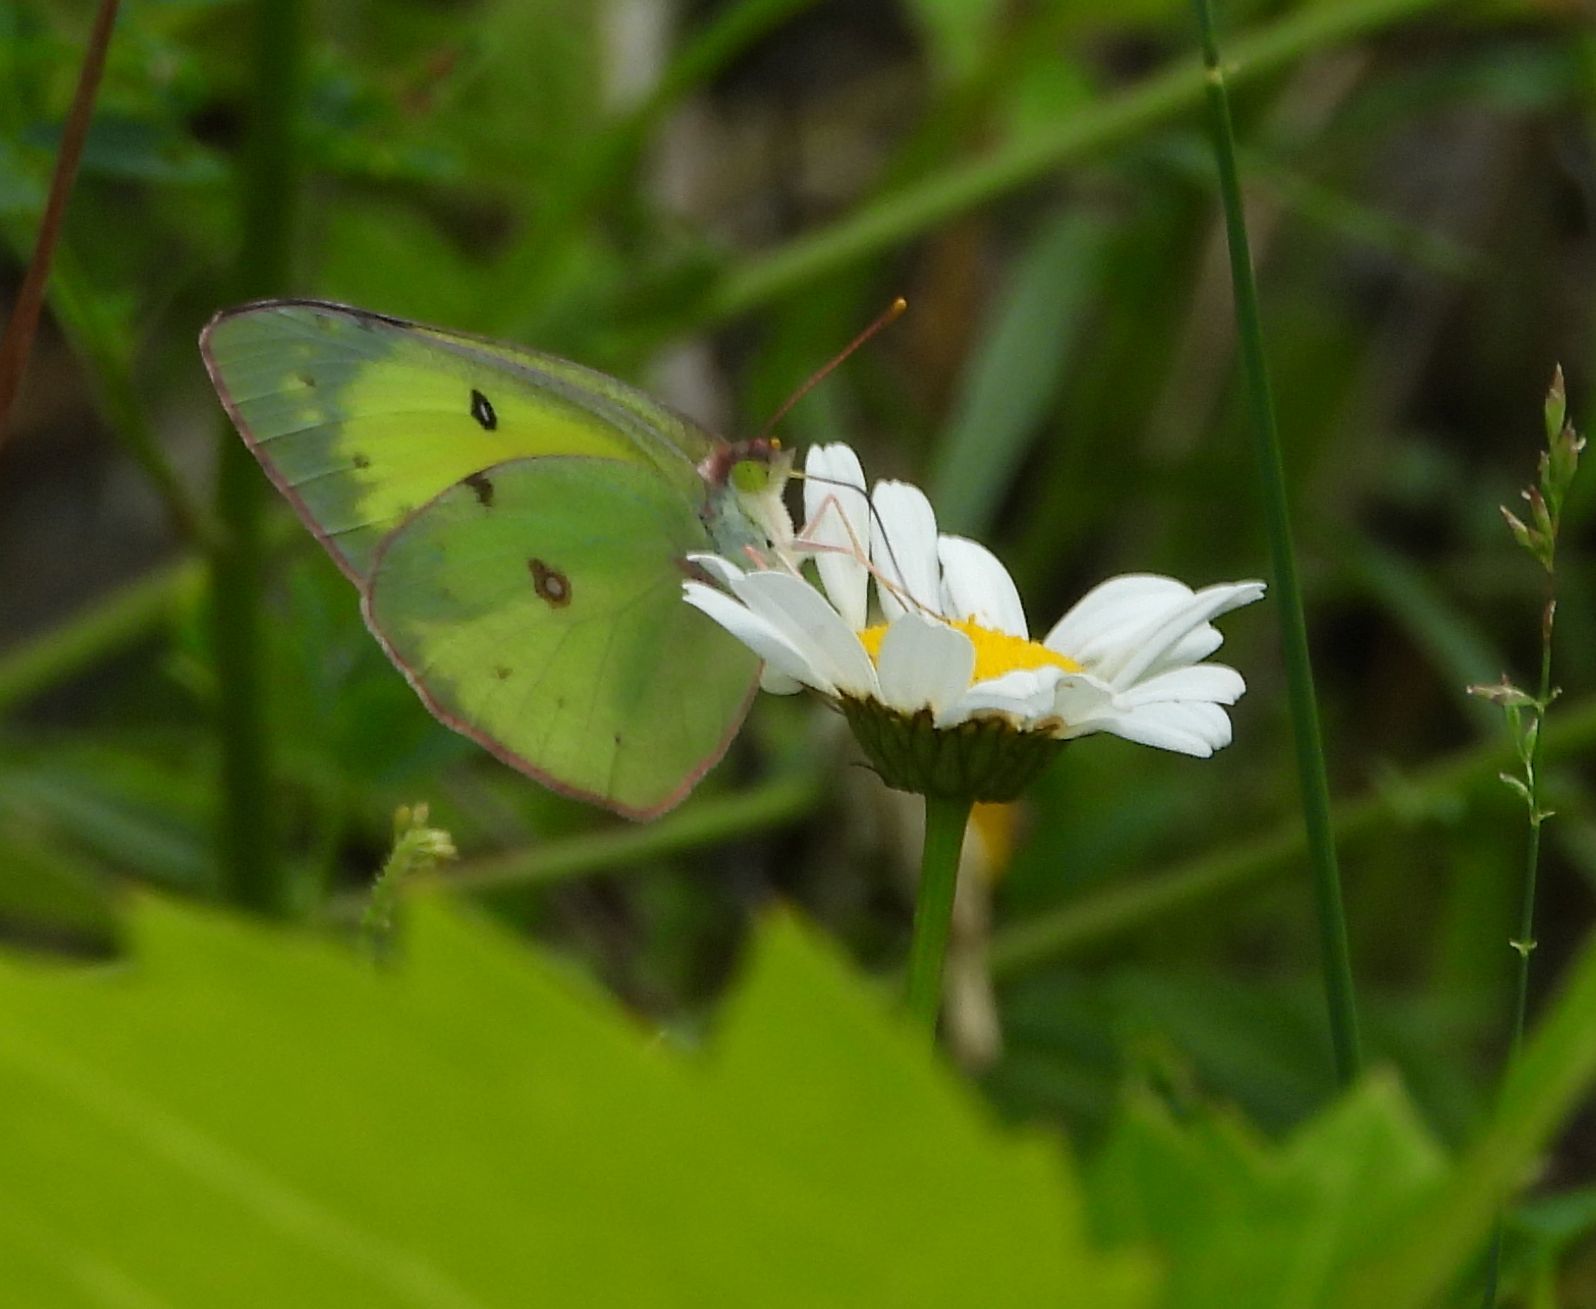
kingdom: Animalia
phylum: Arthropoda
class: Insecta
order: Lepidoptera
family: Pieridae
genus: Colias
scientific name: Colias philodice
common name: Clouded sulphur
